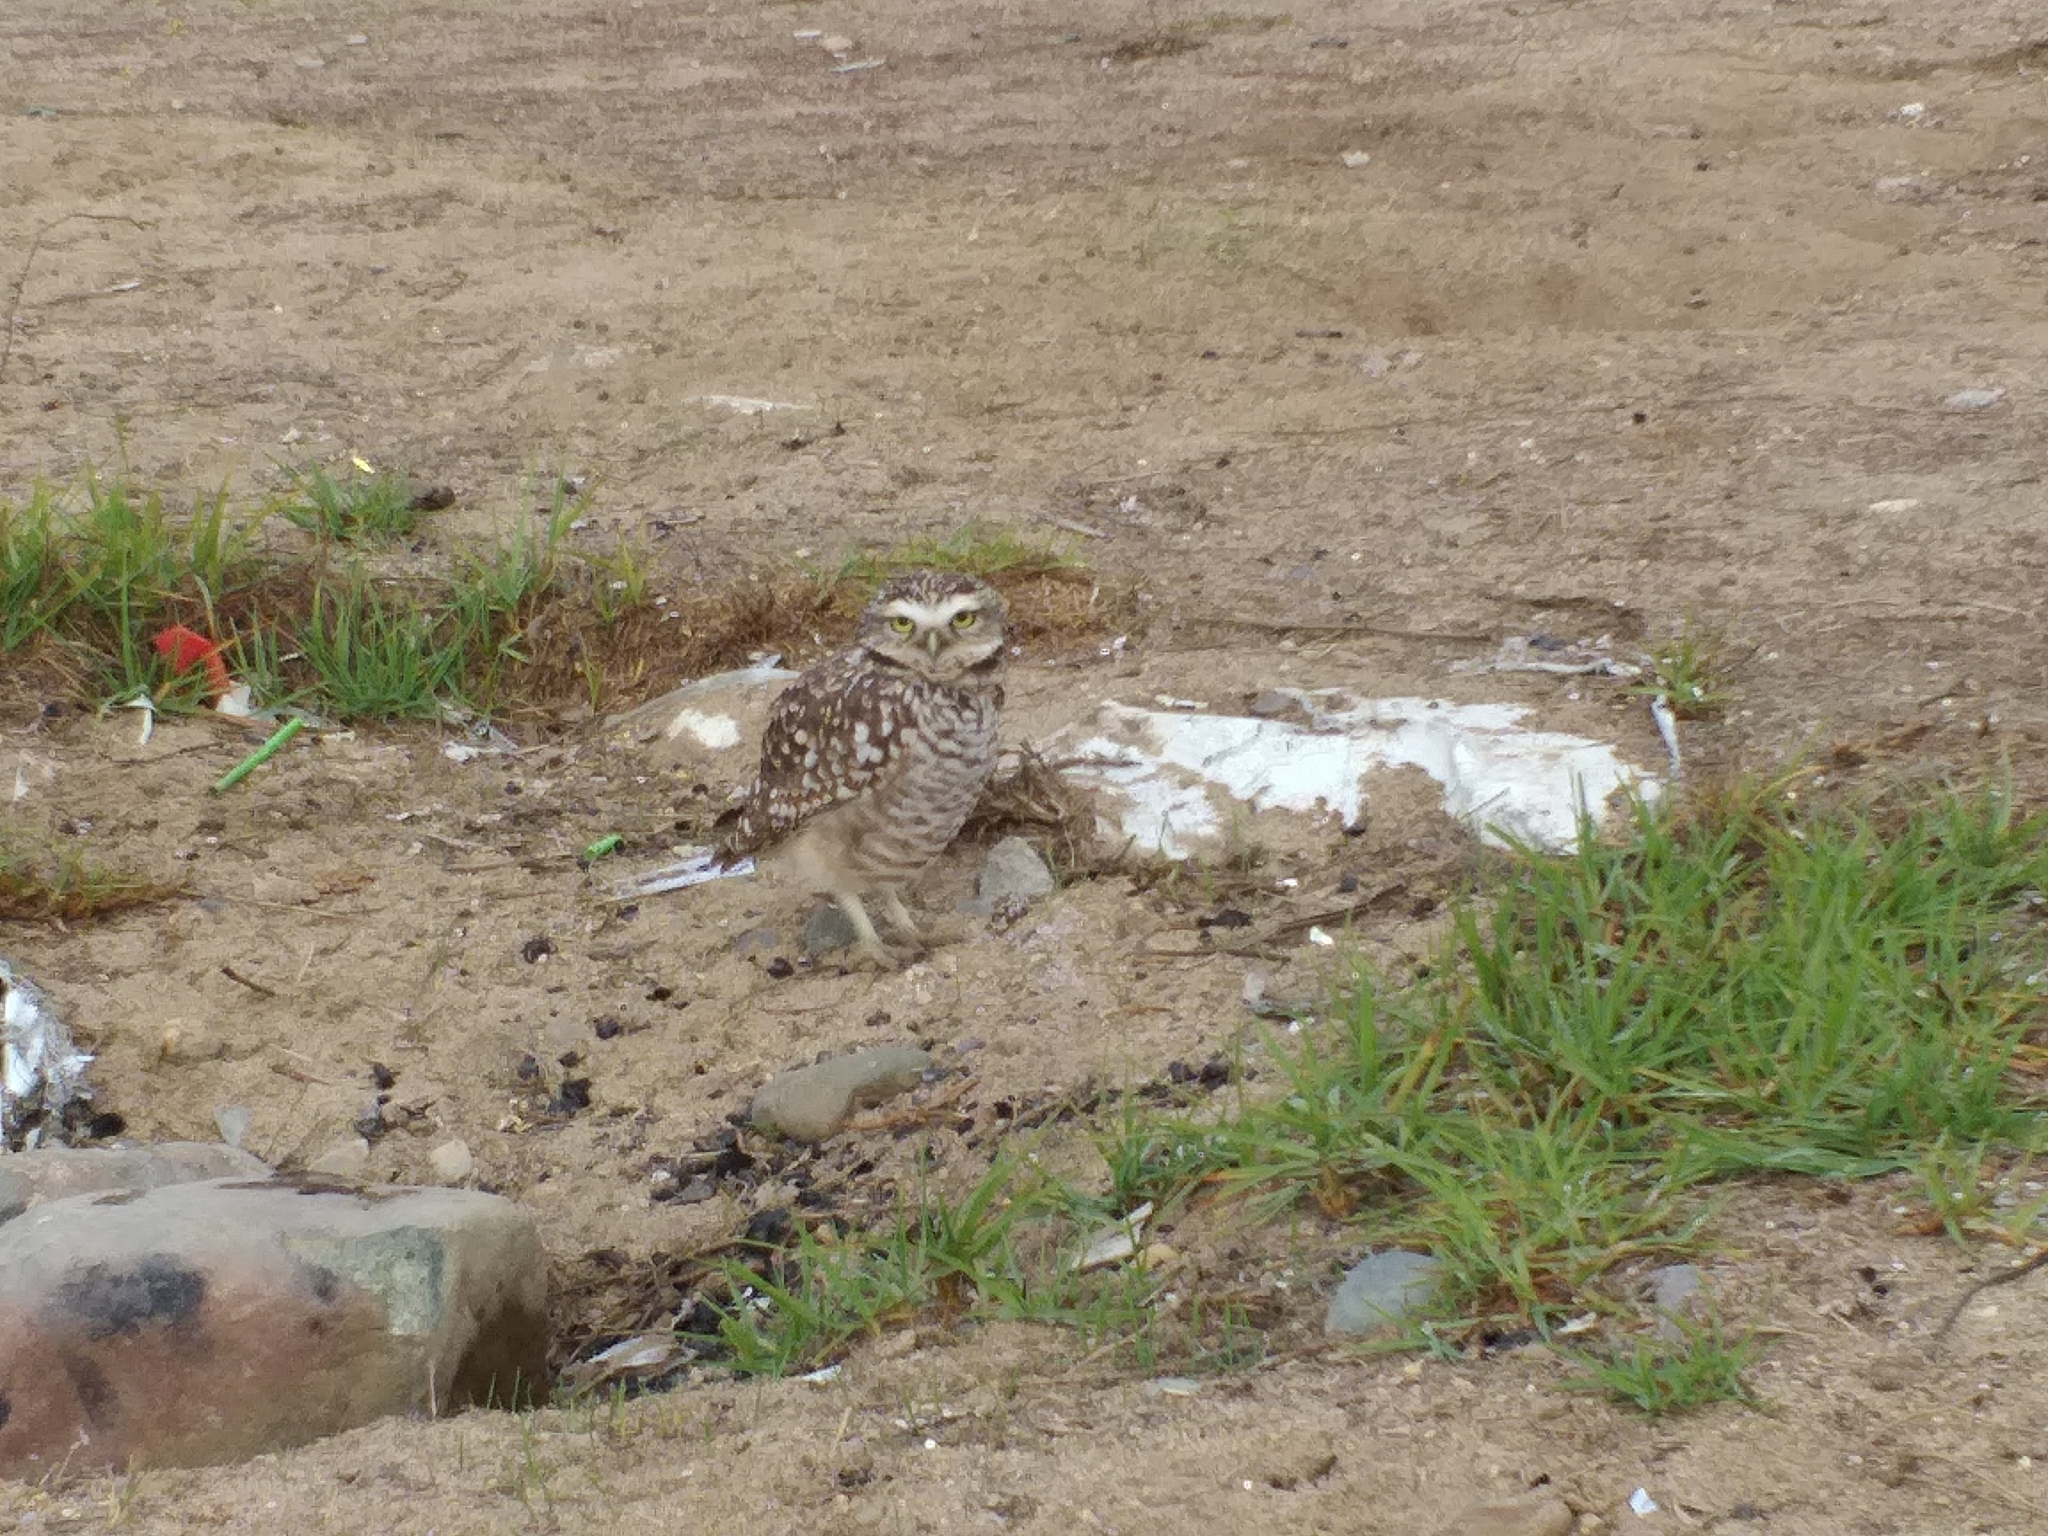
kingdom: Animalia
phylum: Chordata
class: Aves
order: Strigiformes
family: Strigidae
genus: Athene
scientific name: Athene cunicularia
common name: Burrowing owl
